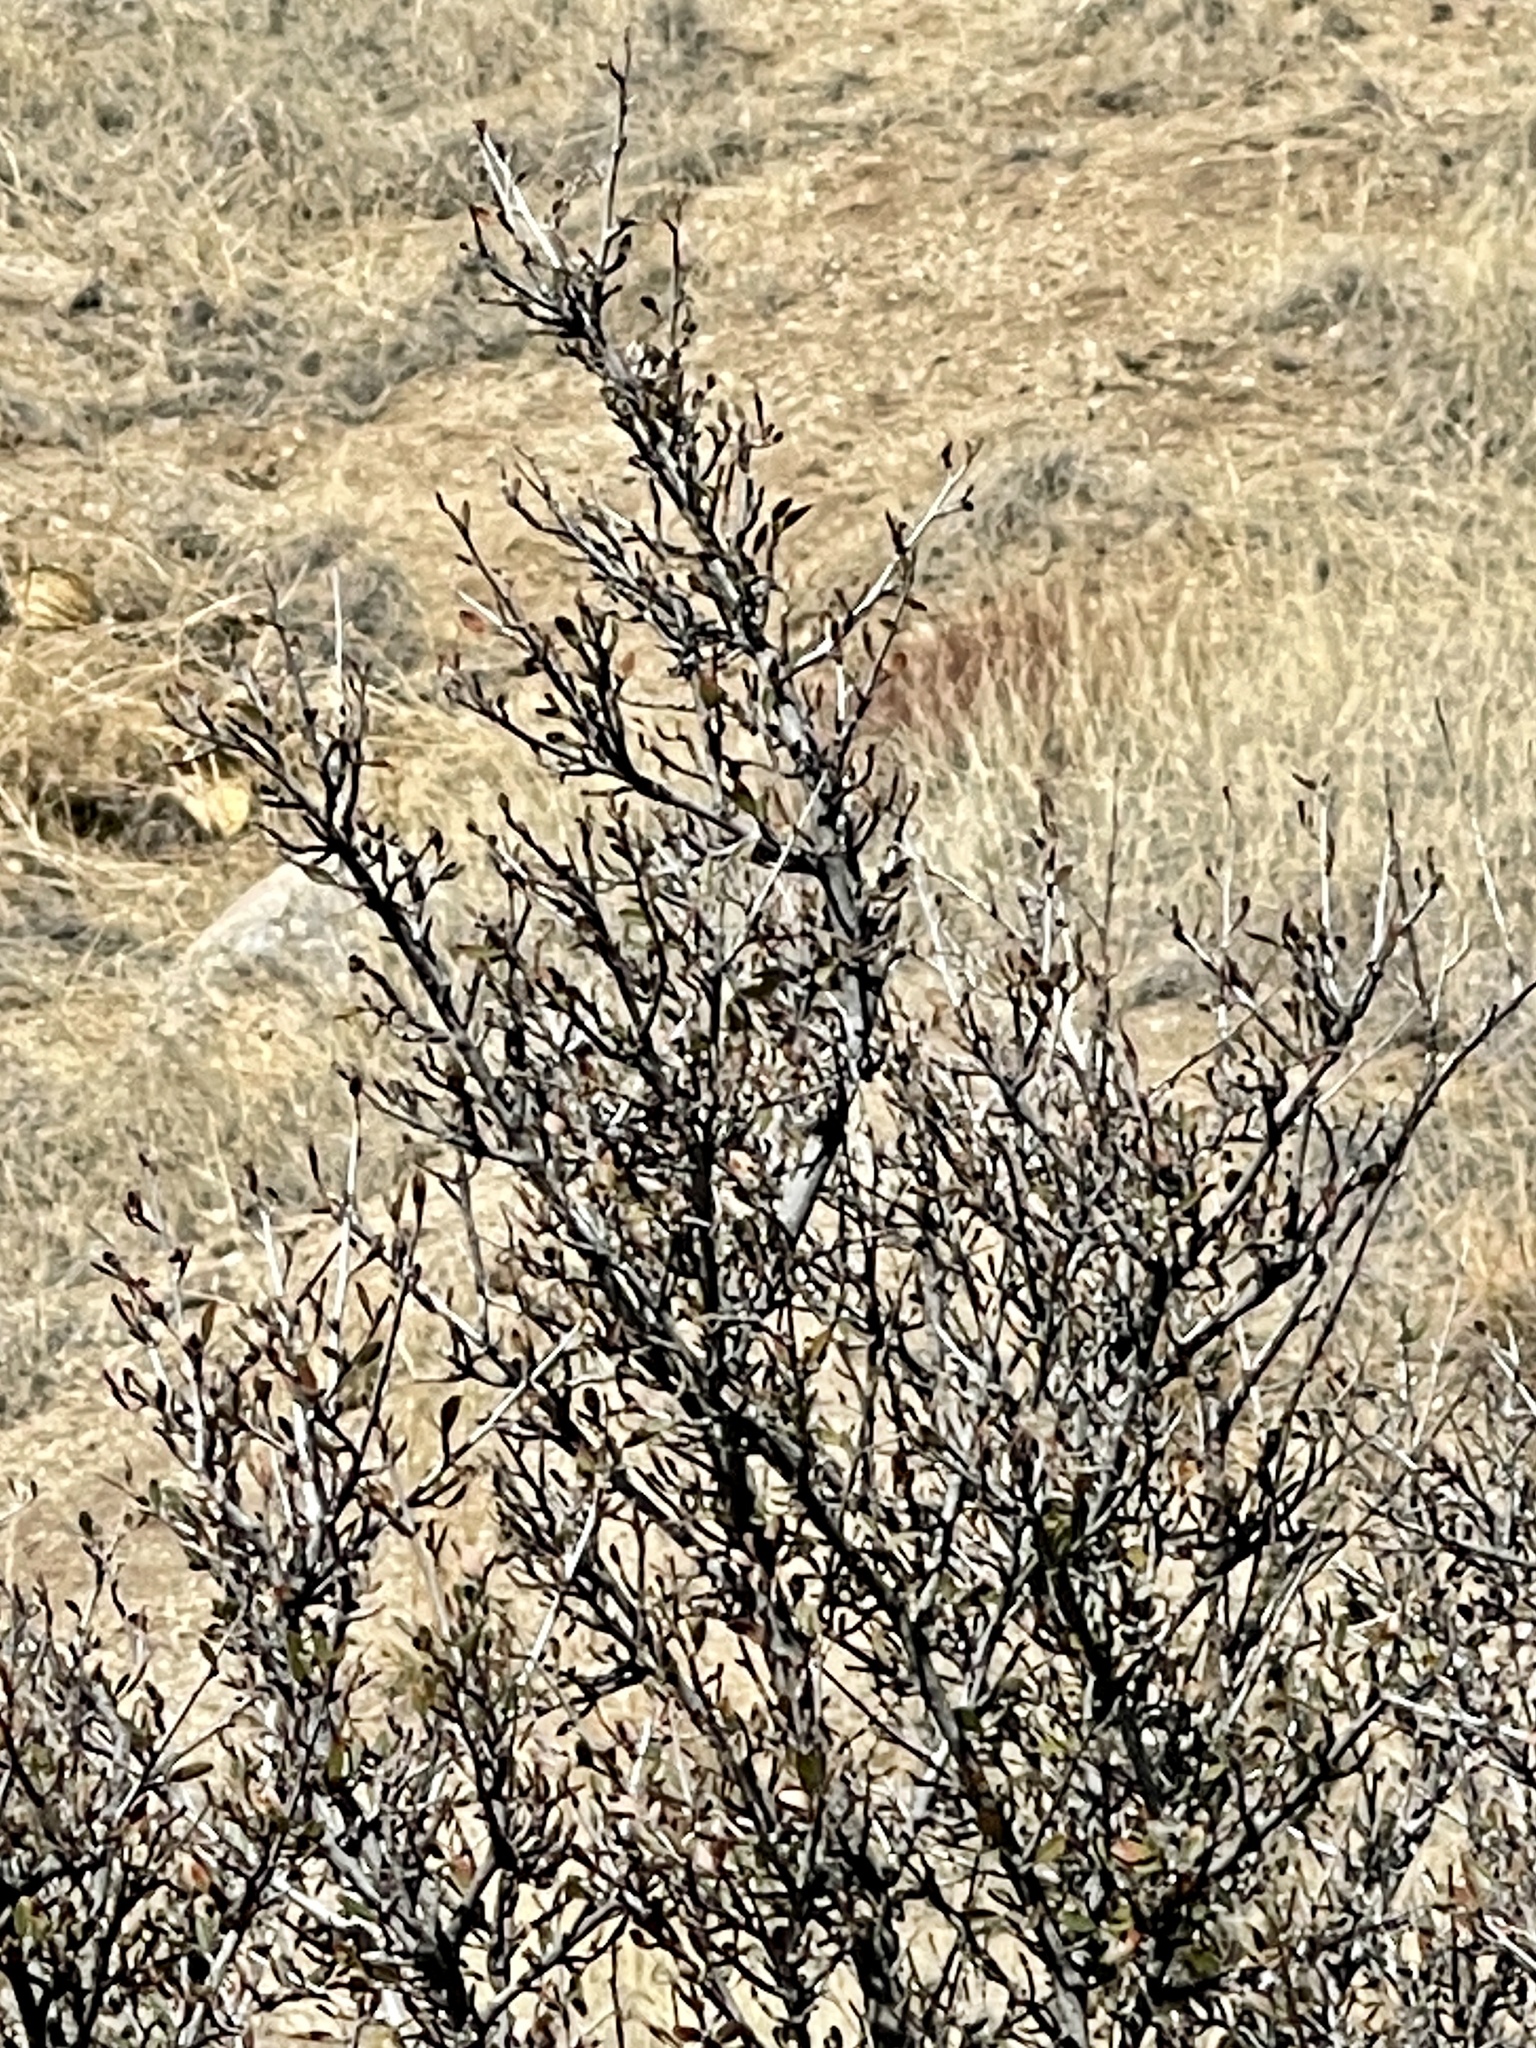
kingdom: Plantae
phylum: Tracheophyta
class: Magnoliopsida
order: Rosales
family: Rosaceae
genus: Cercocarpus
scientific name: Cercocarpus breviflorus
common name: Wright's mountain-mahogany
